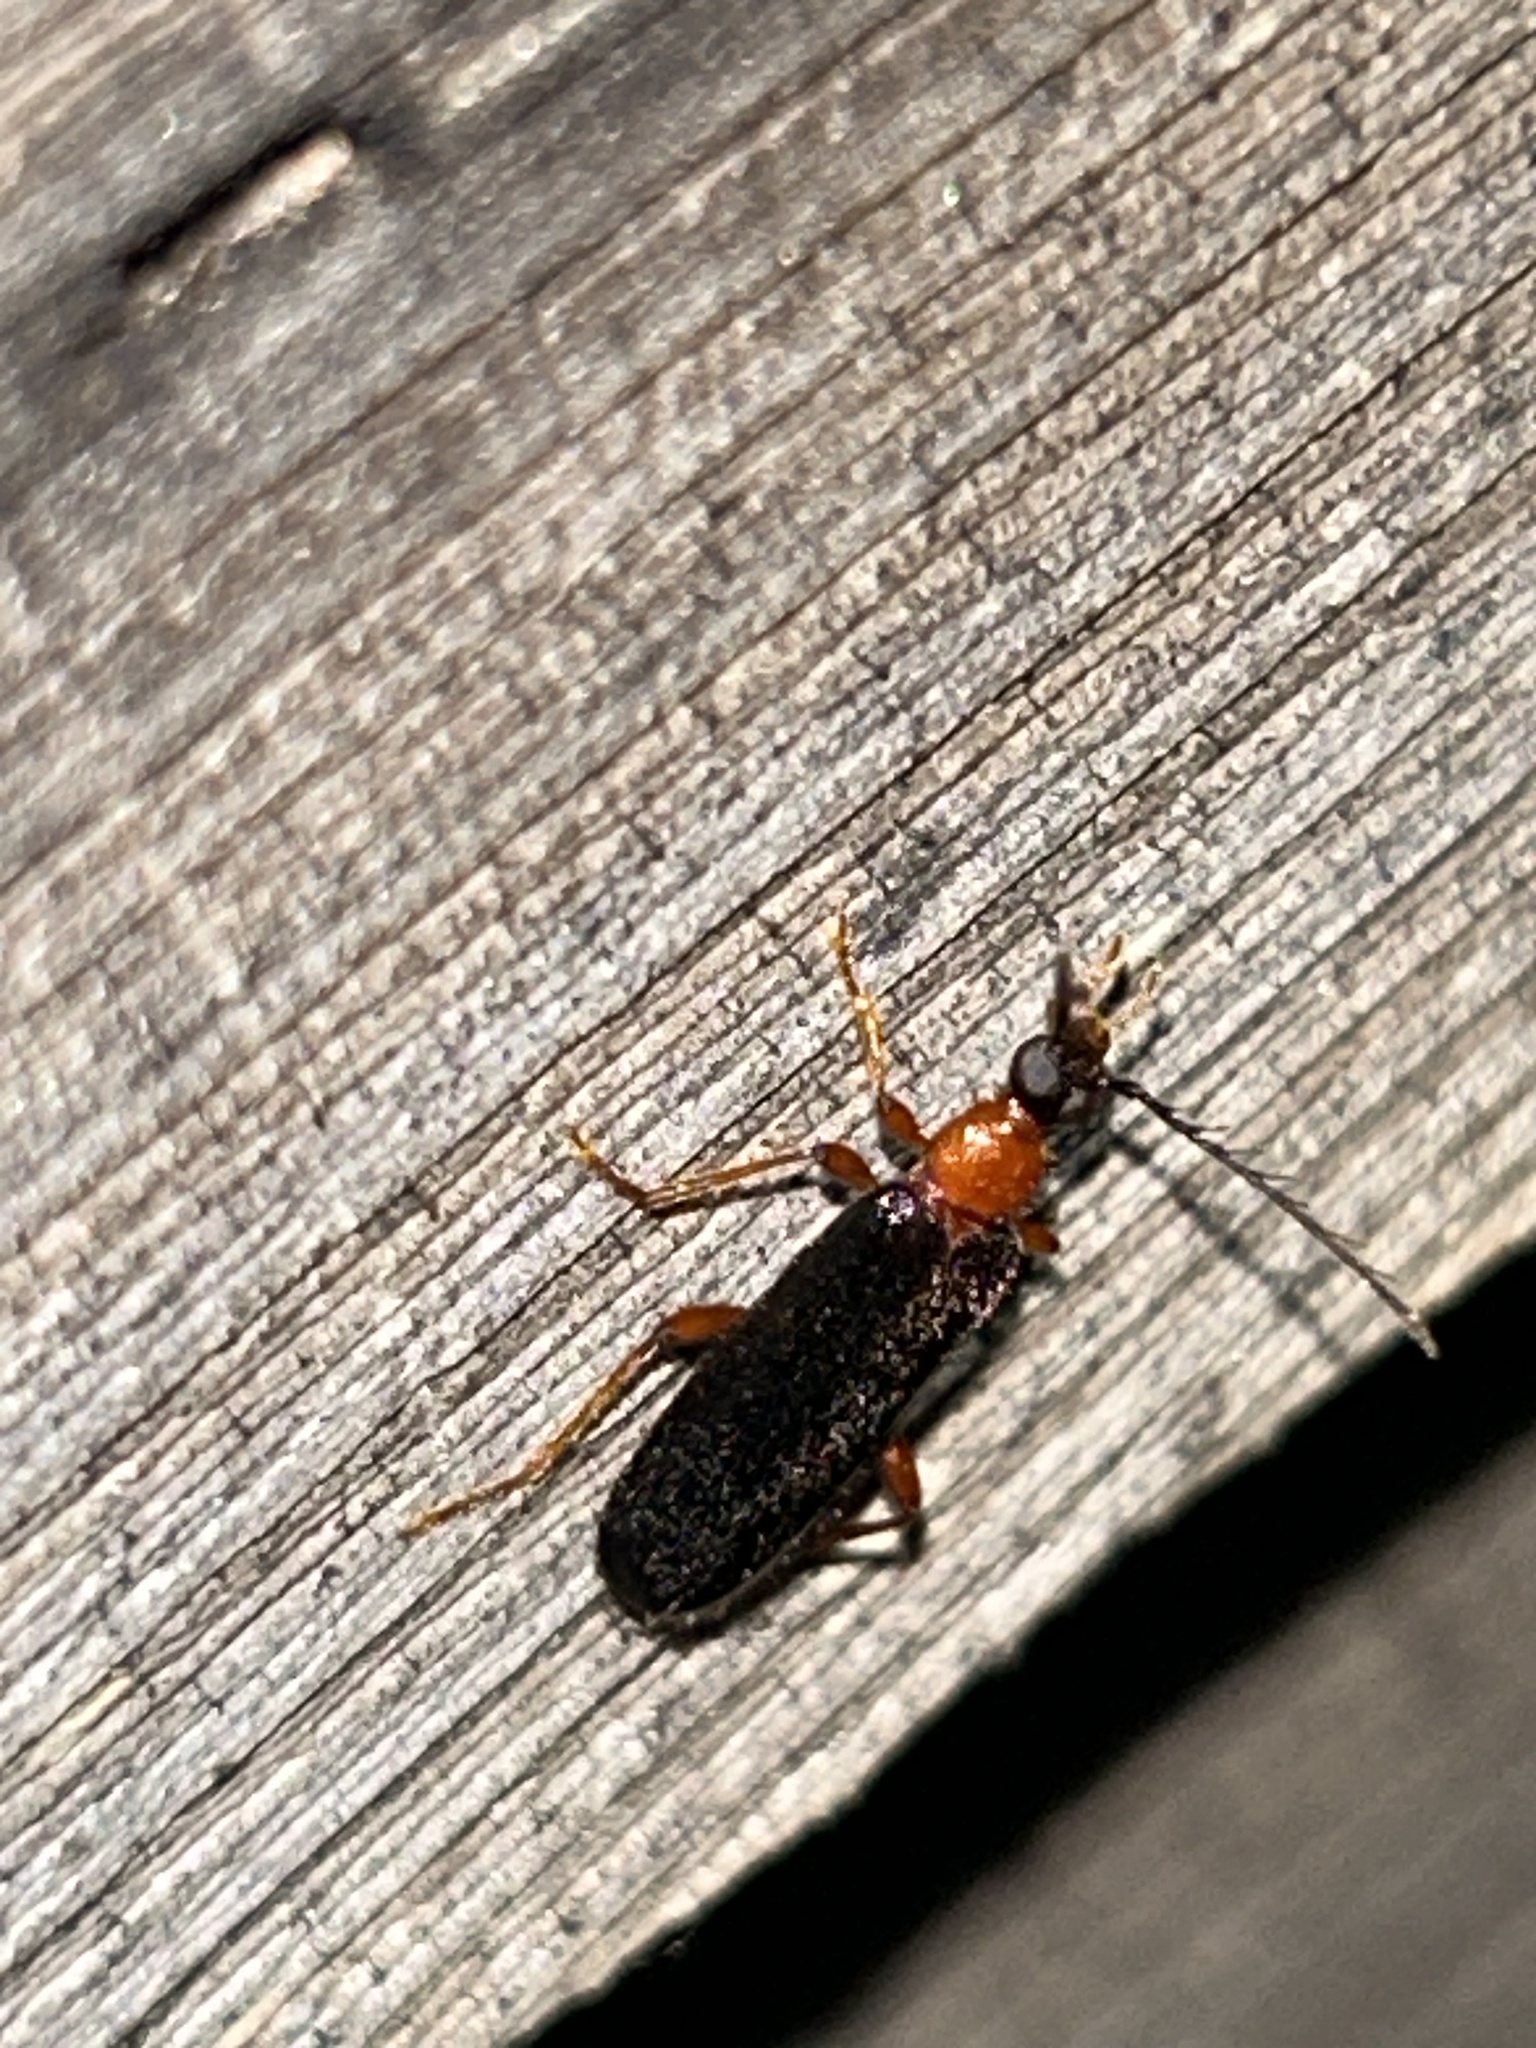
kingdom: Animalia
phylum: Arthropoda
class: Insecta
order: Coleoptera
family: Pyrochroidae
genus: Dendroides
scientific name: Dendroides canadensis
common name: Canada fire-colored beetle
